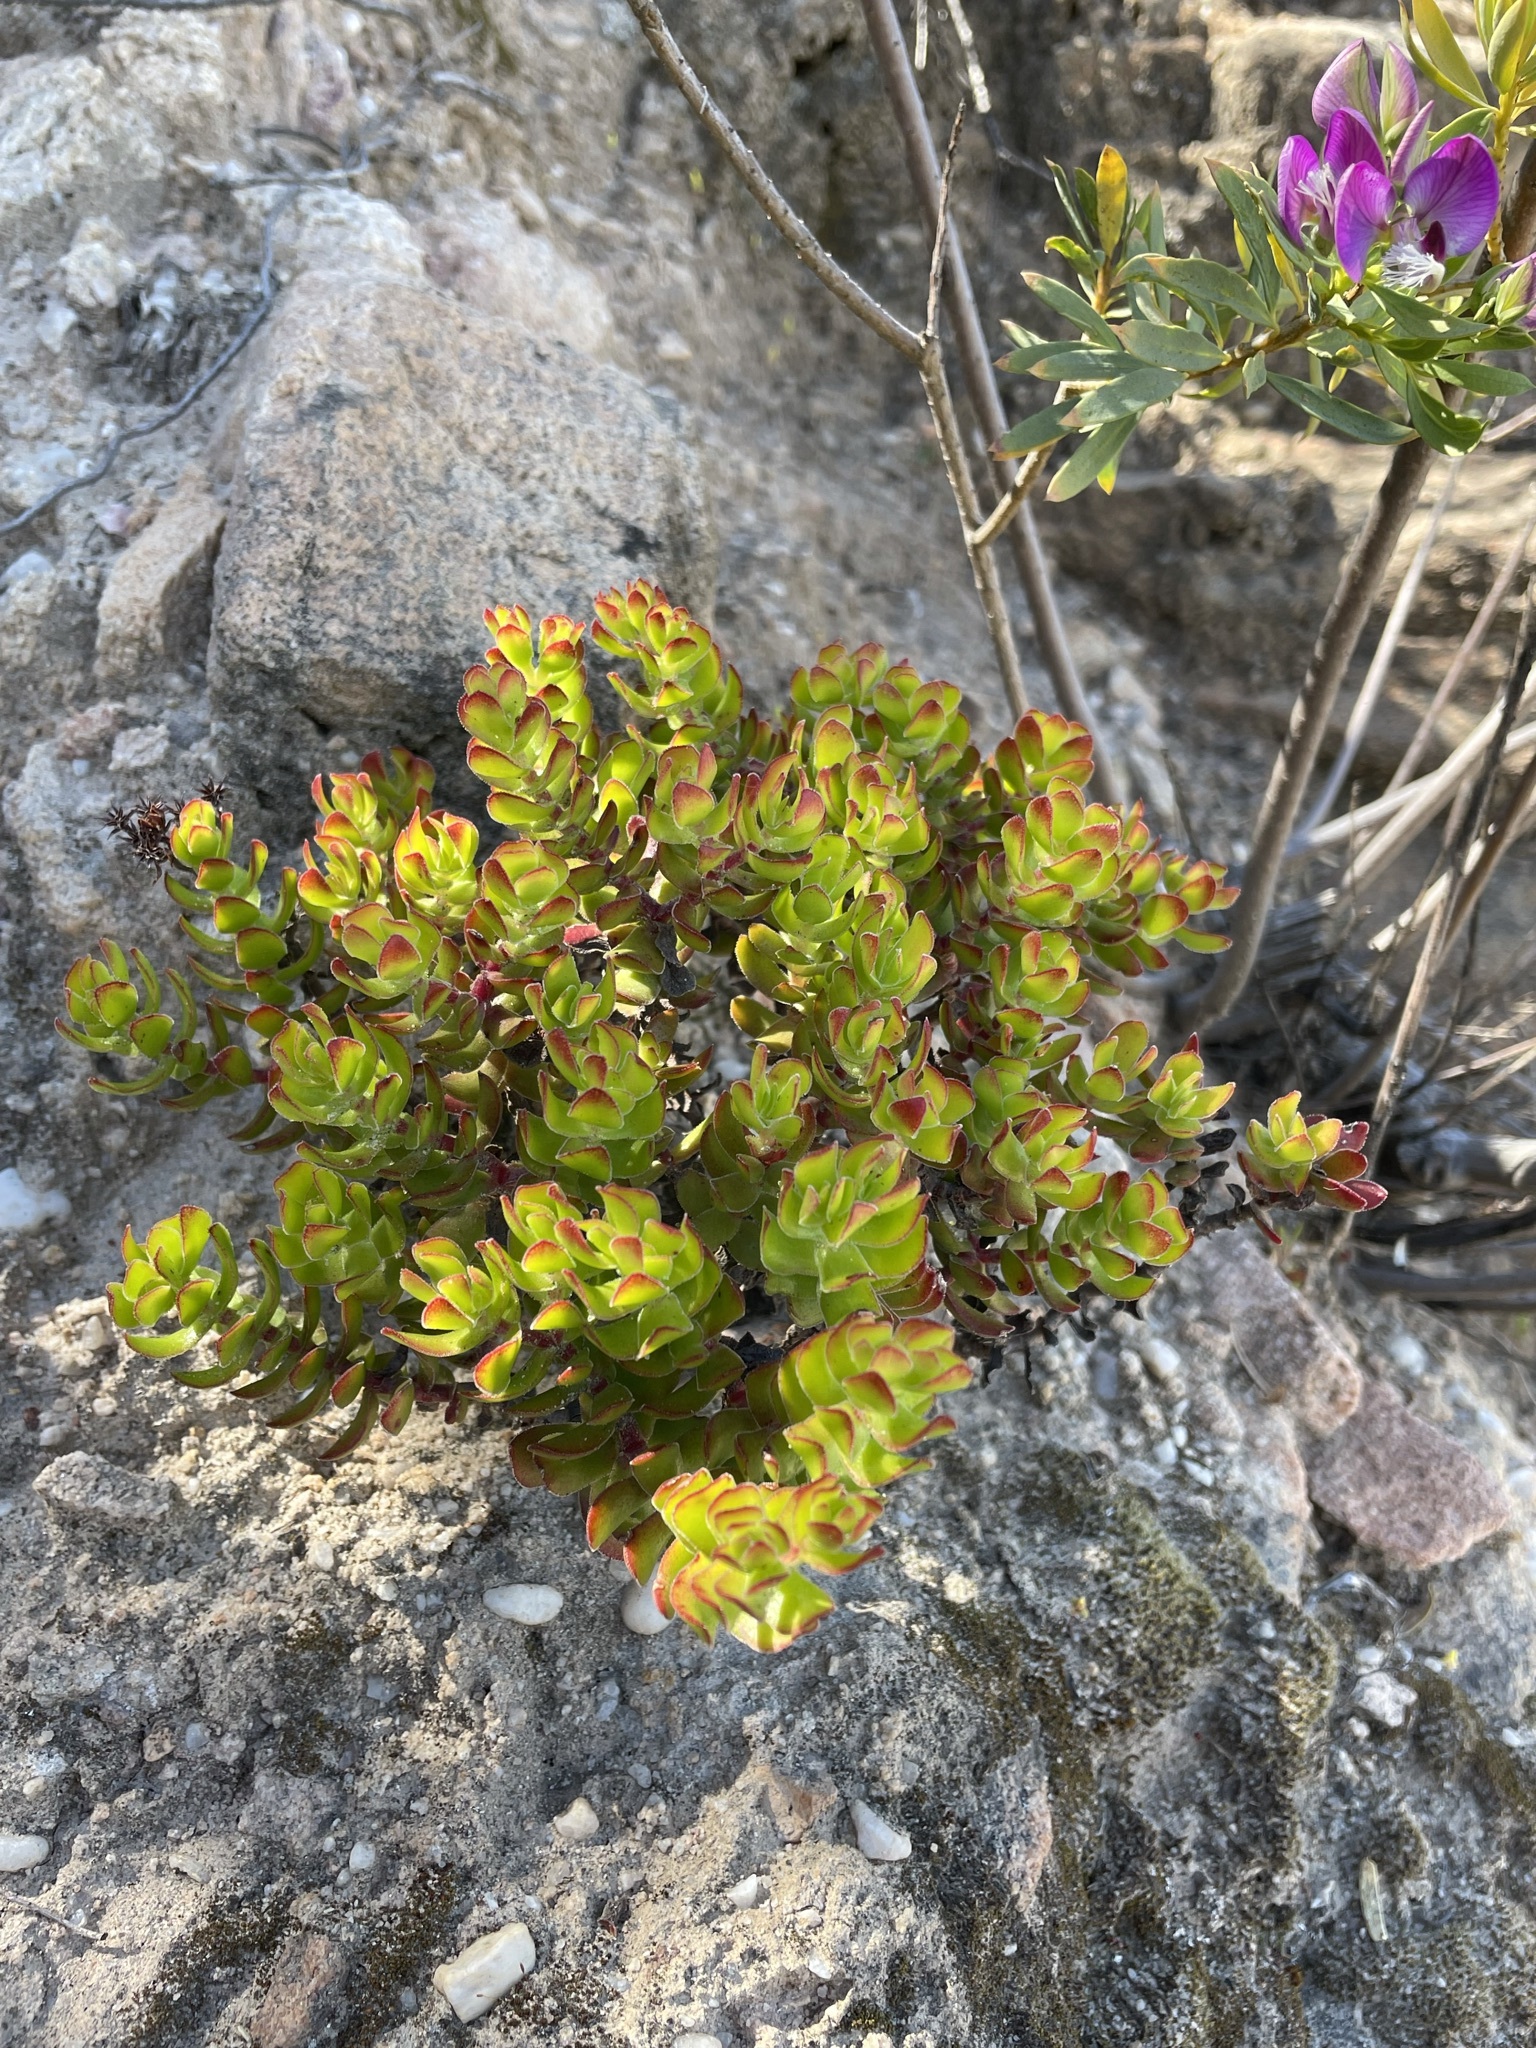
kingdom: Plantae
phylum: Tracheophyta
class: Magnoliopsida
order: Saxifragales
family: Crassulaceae
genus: Crassula
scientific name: Crassula undulata
